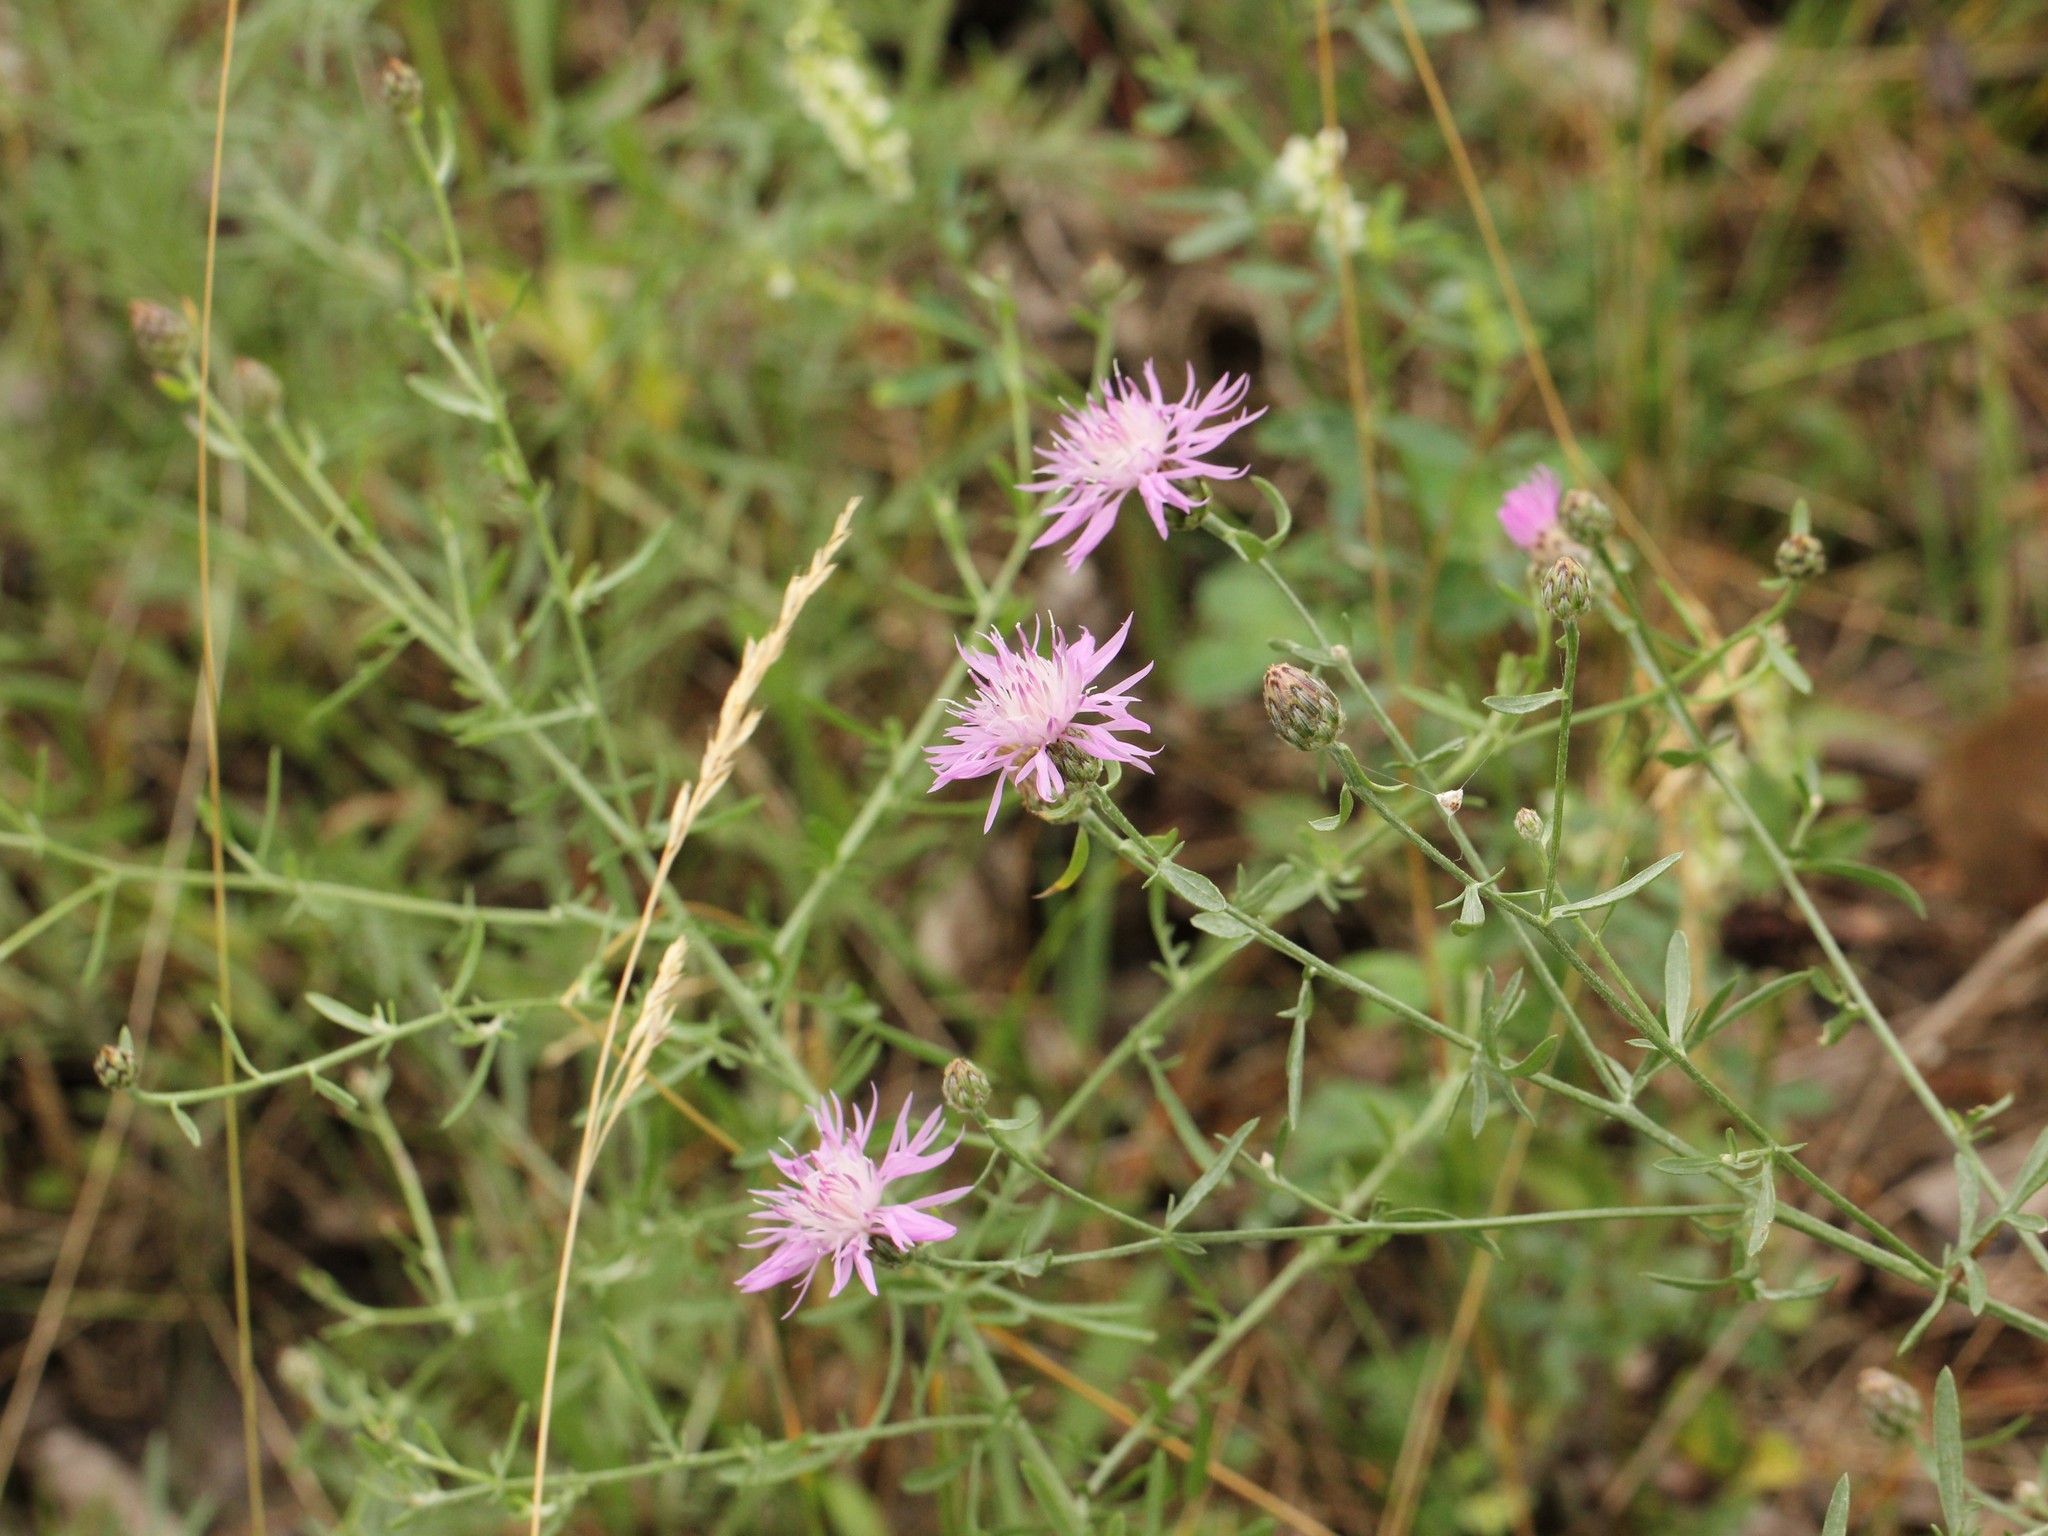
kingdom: Plantae
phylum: Tracheophyta
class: Magnoliopsida
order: Asterales
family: Asteraceae
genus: Centaurea
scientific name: Centaurea stoebe
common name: Spotted knapweed
